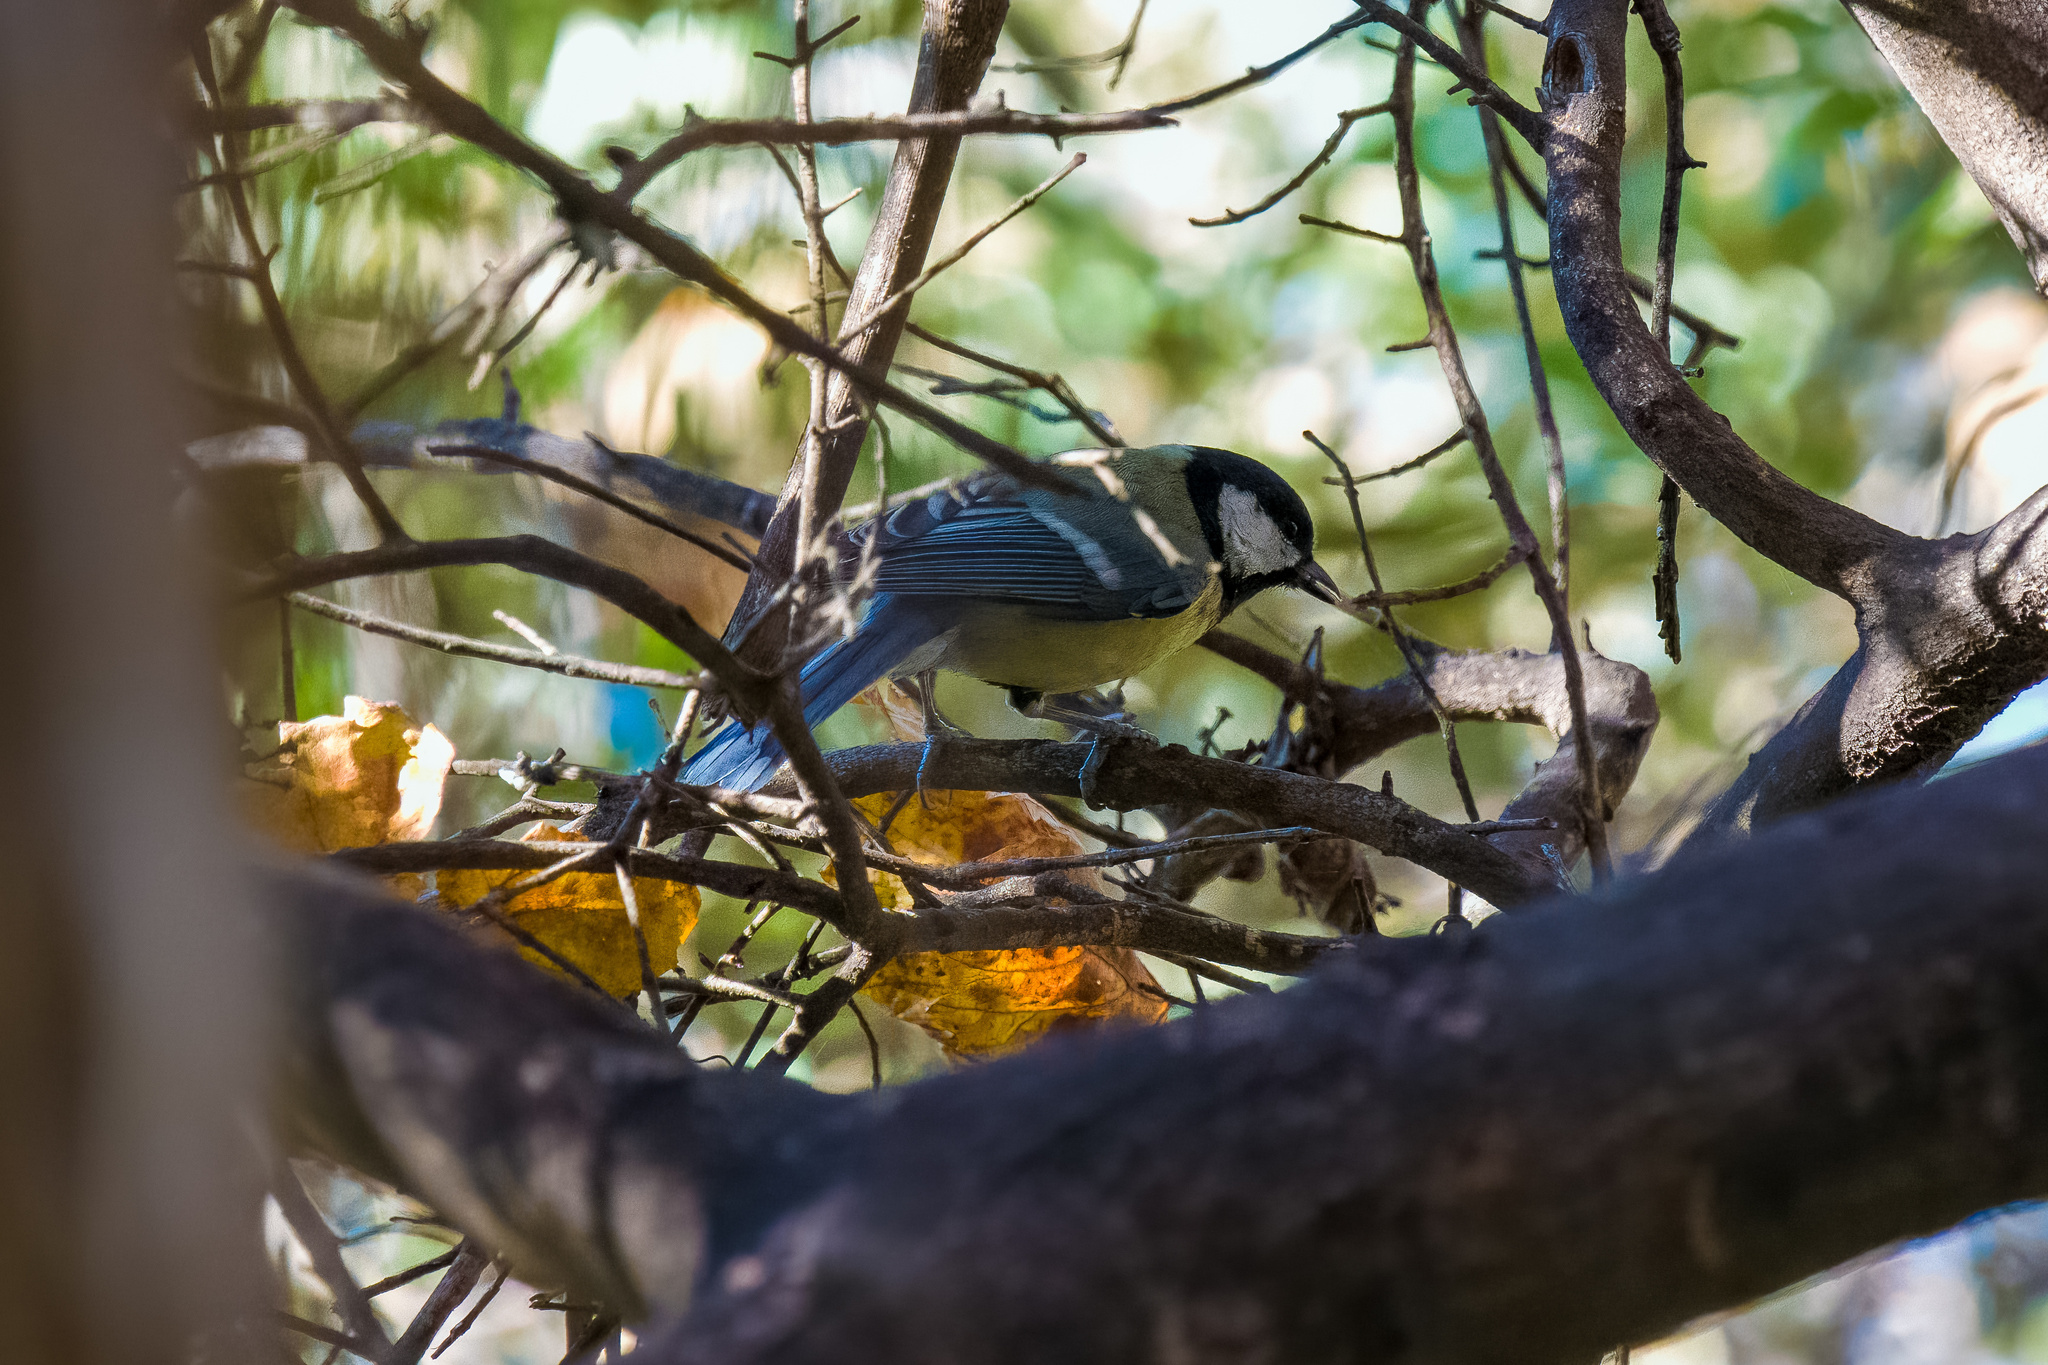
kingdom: Animalia
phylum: Chordata
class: Aves
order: Passeriformes
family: Paridae
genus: Parus
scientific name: Parus major
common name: Great tit
